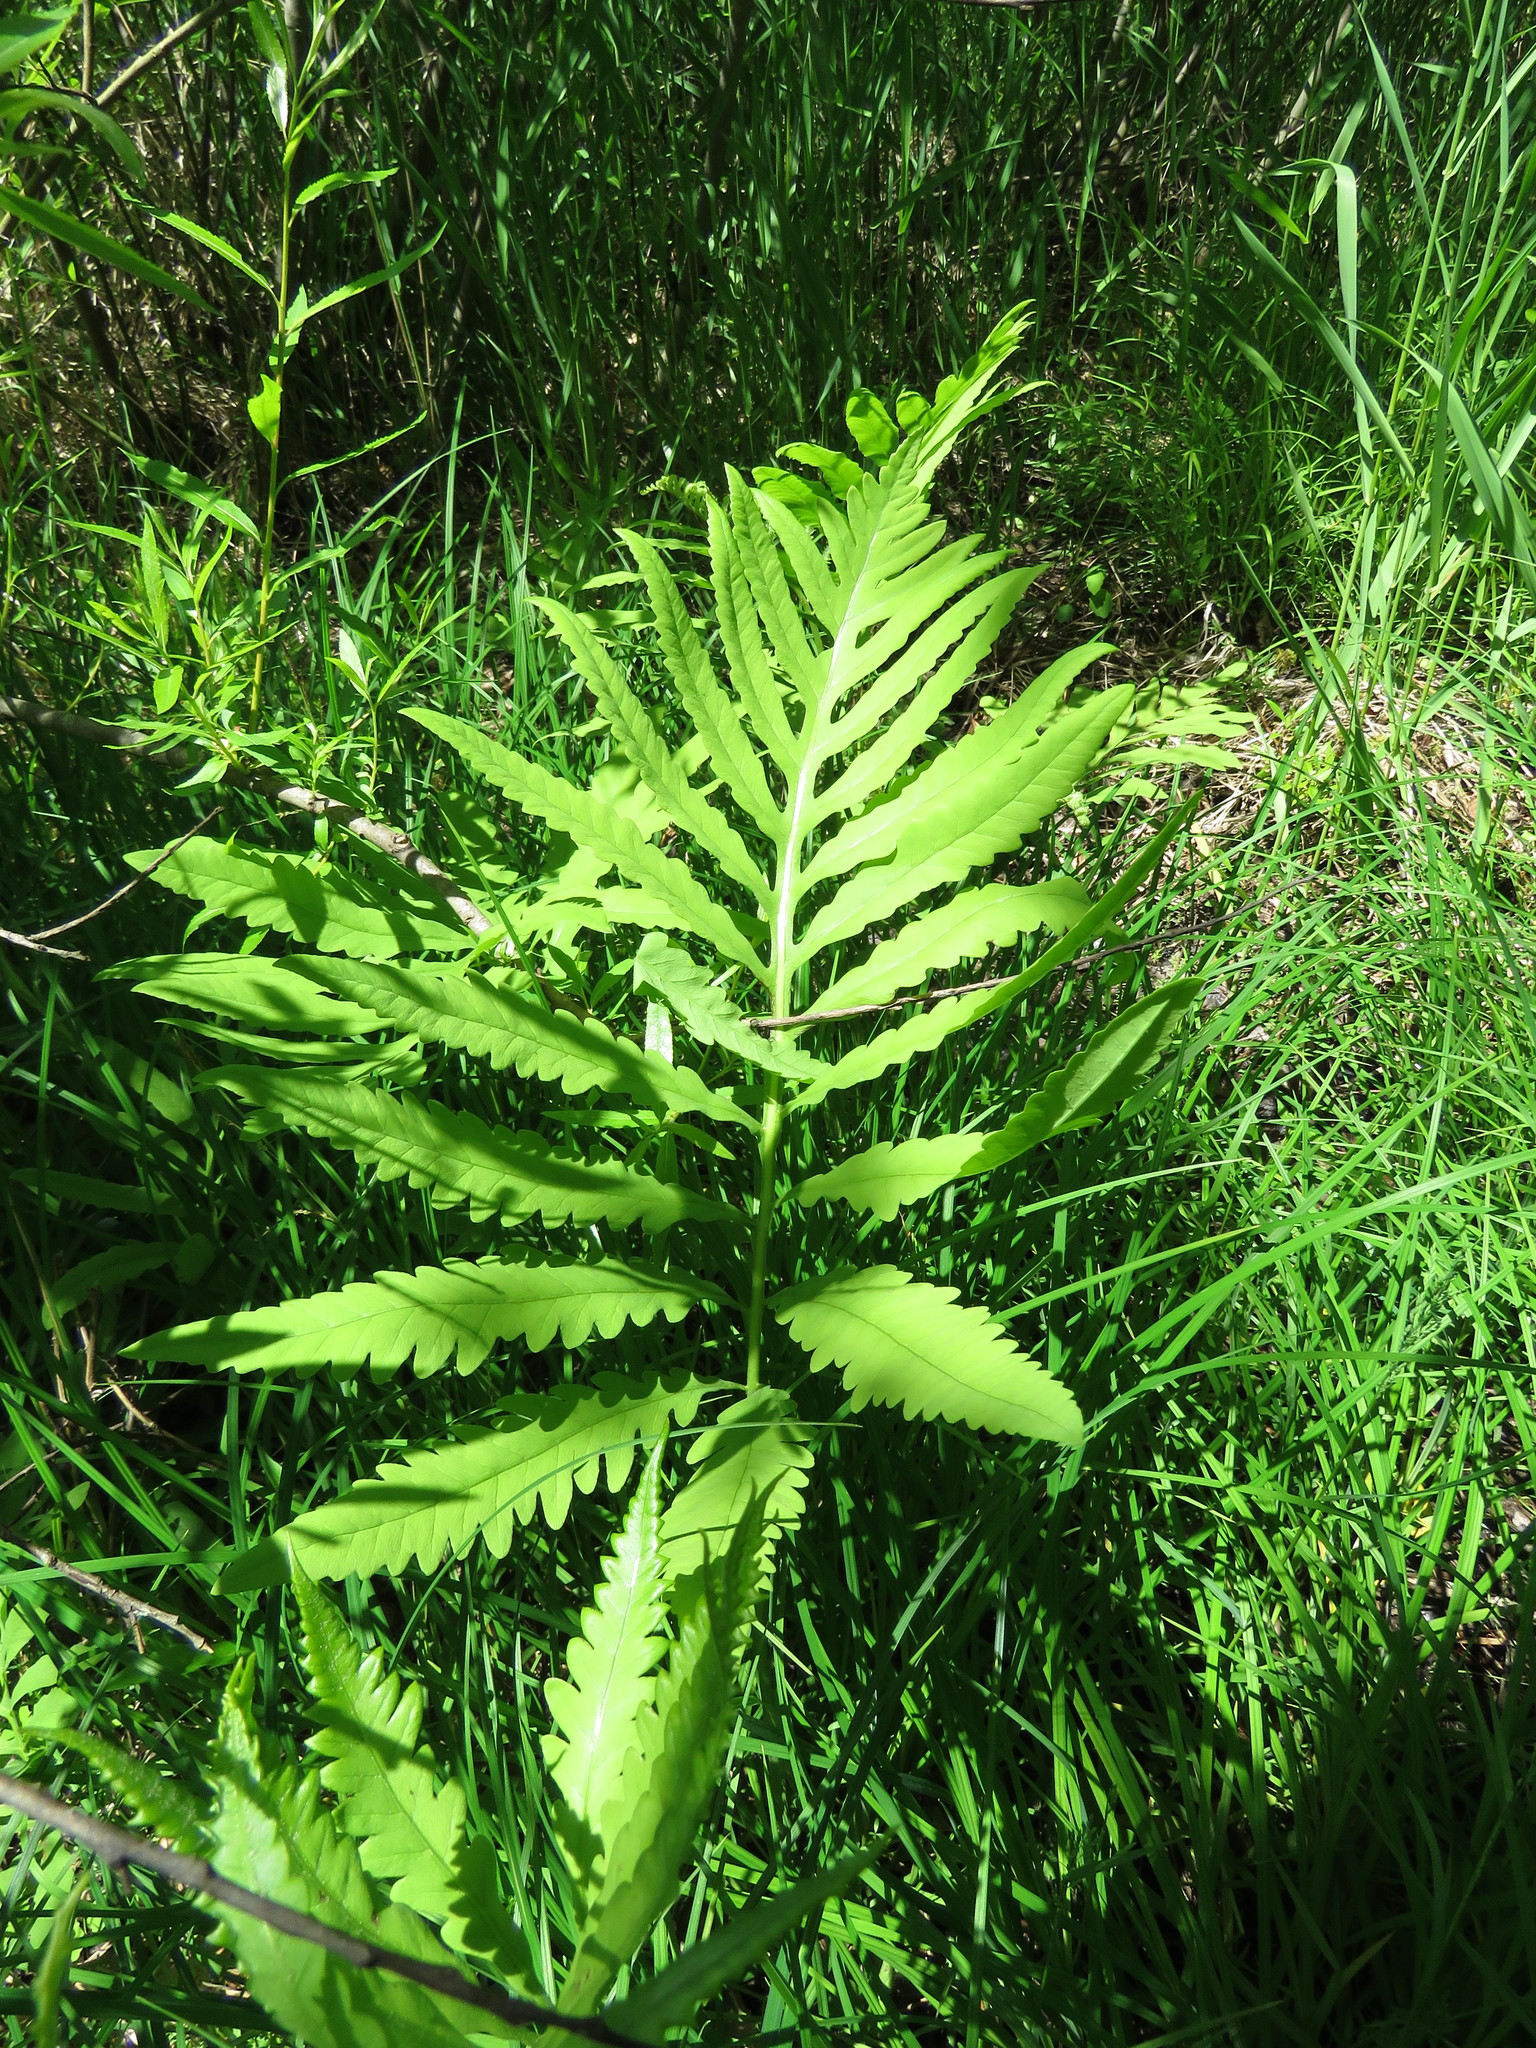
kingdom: Plantae
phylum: Tracheophyta
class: Polypodiopsida
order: Polypodiales
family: Onocleaceae
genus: Onoclea
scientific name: Onoclea sensibilis
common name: Sensitive fern
